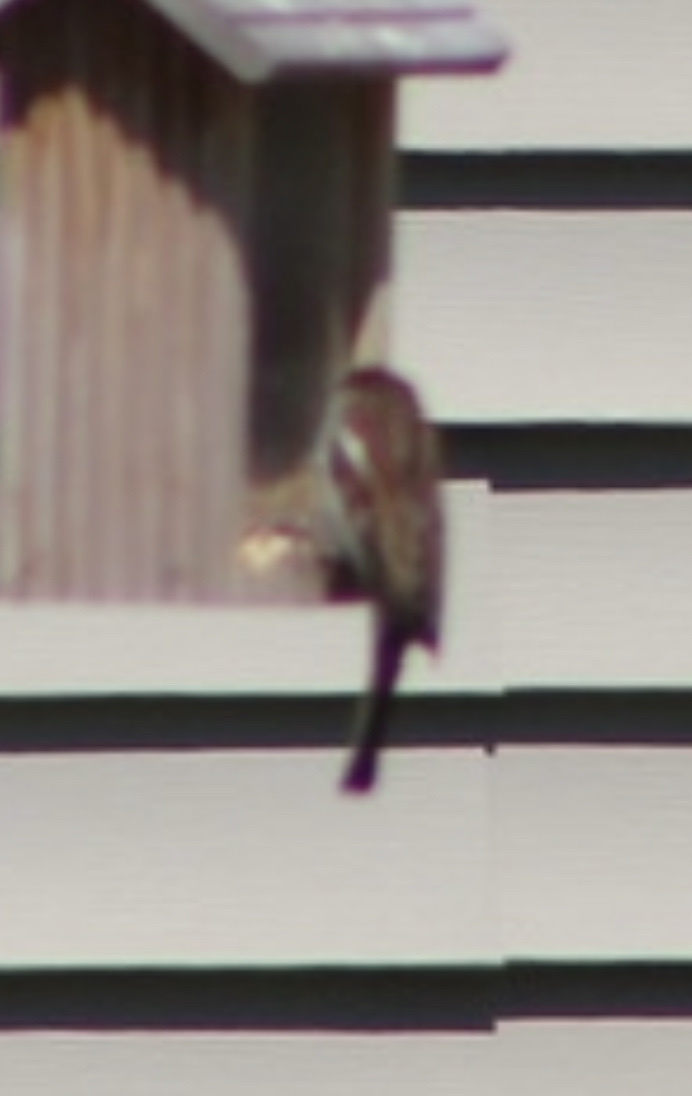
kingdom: Animalia
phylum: Chordata
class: Aves
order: Passeriformes
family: Passeridae
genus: Passer
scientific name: Passer domesticus
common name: House sparrow
